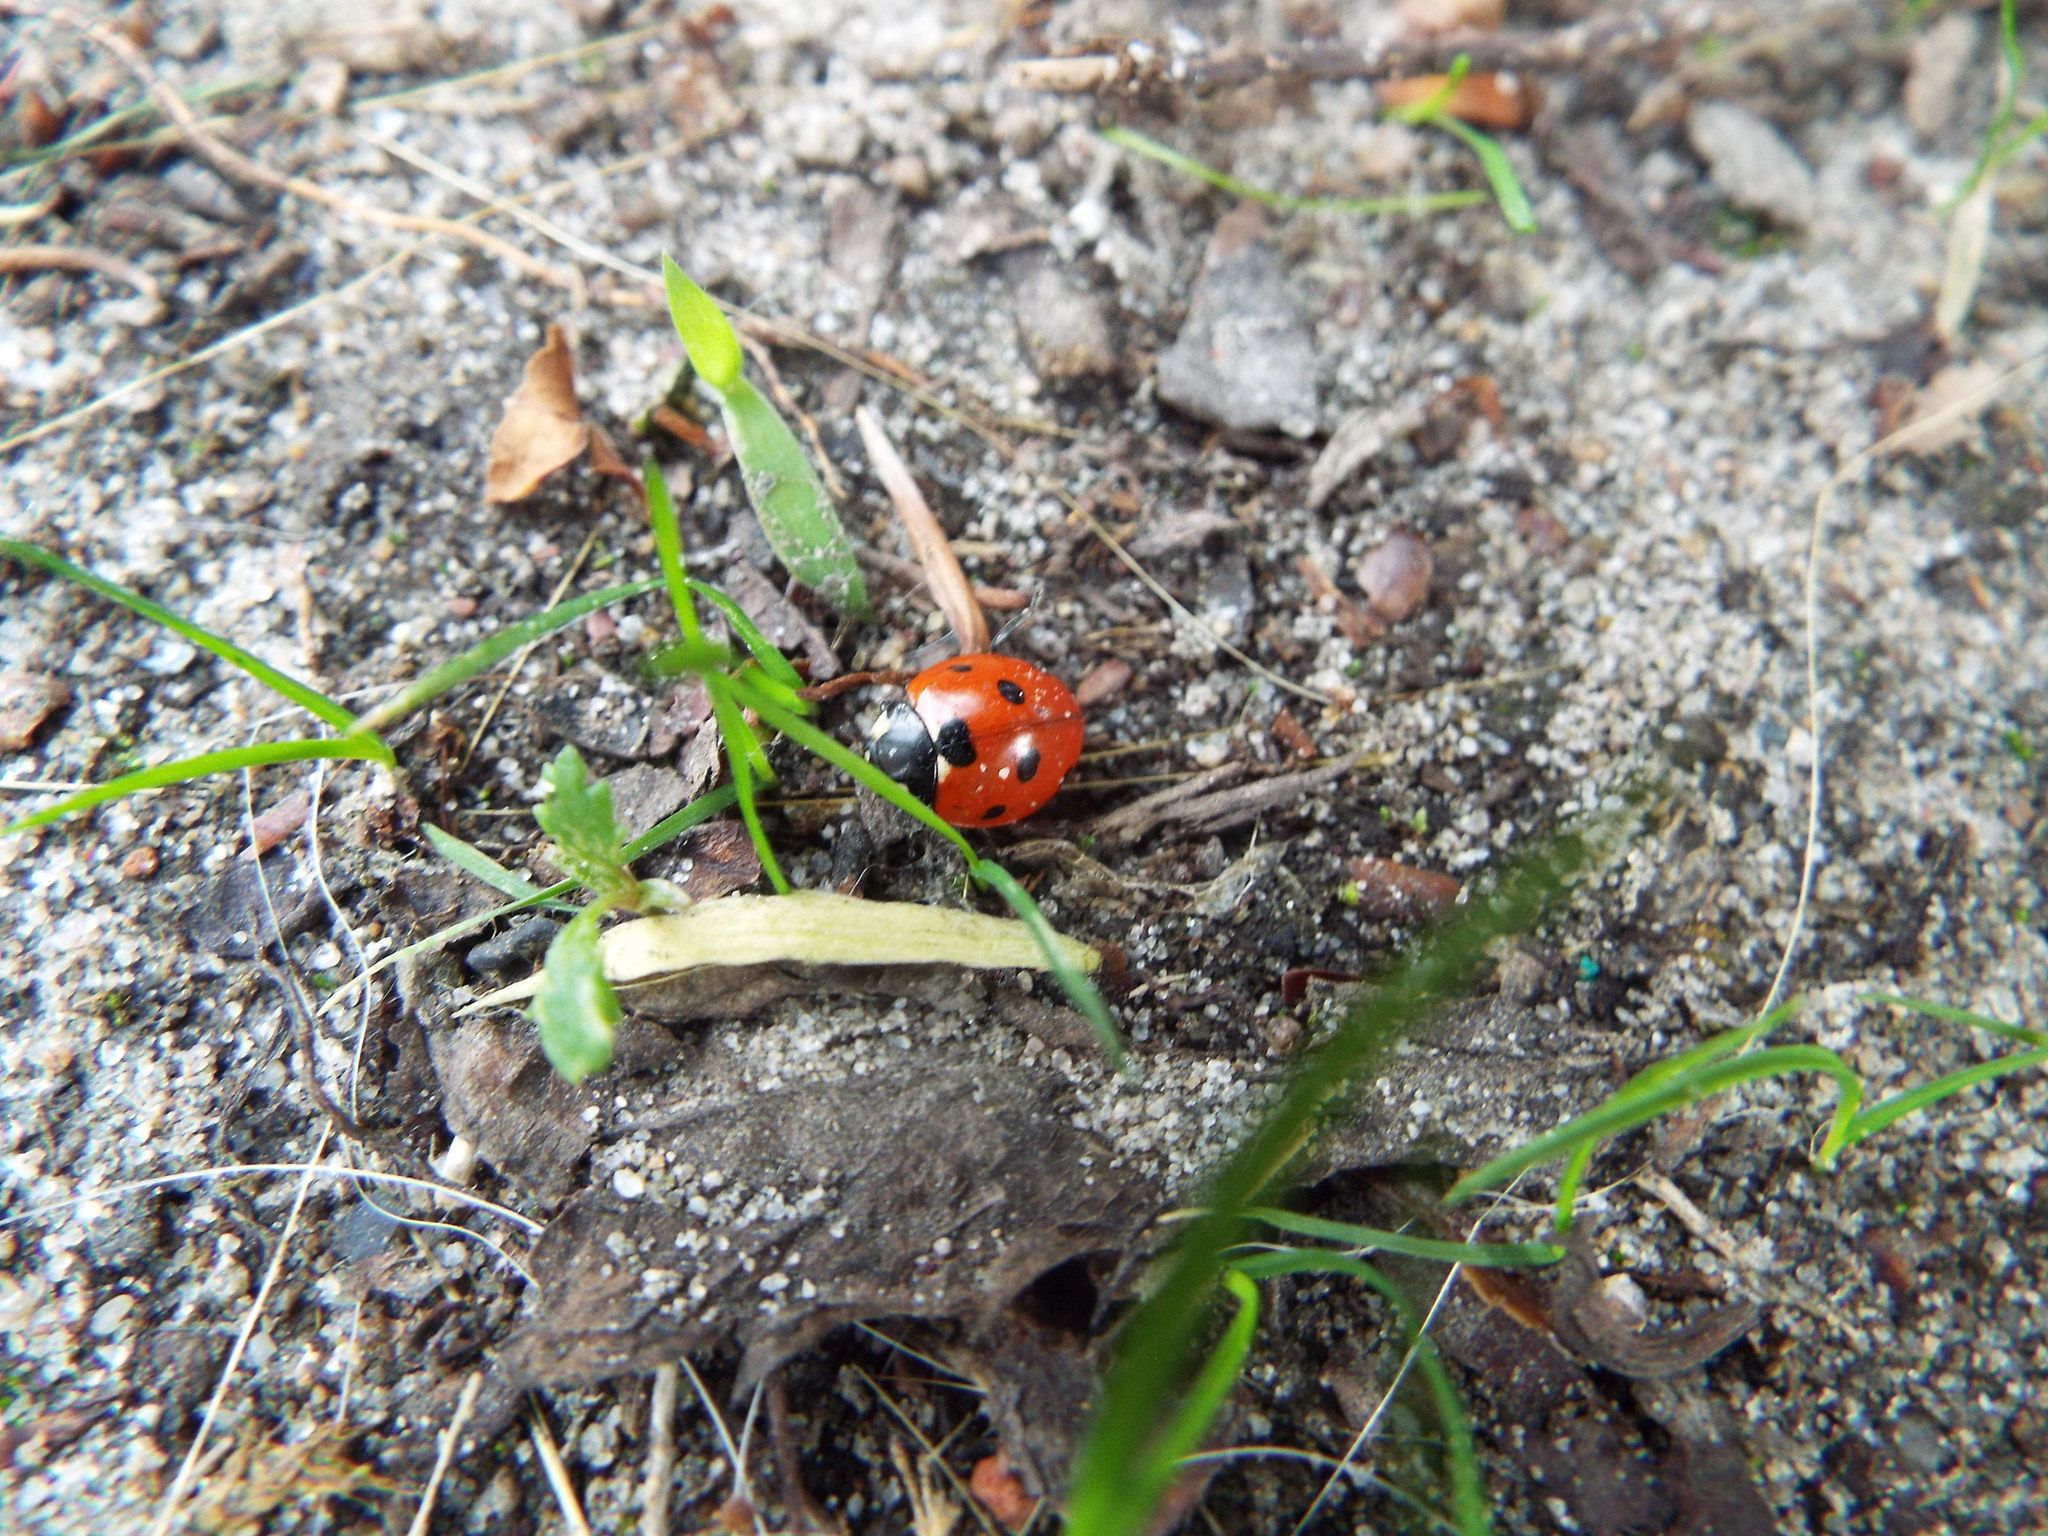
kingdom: Animalia
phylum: Arthropoda
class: Insecta
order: Coleoptera
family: Coccinellidae
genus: Coccinella
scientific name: Coccinella septempunctata
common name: Sevenspotted lady beetle
